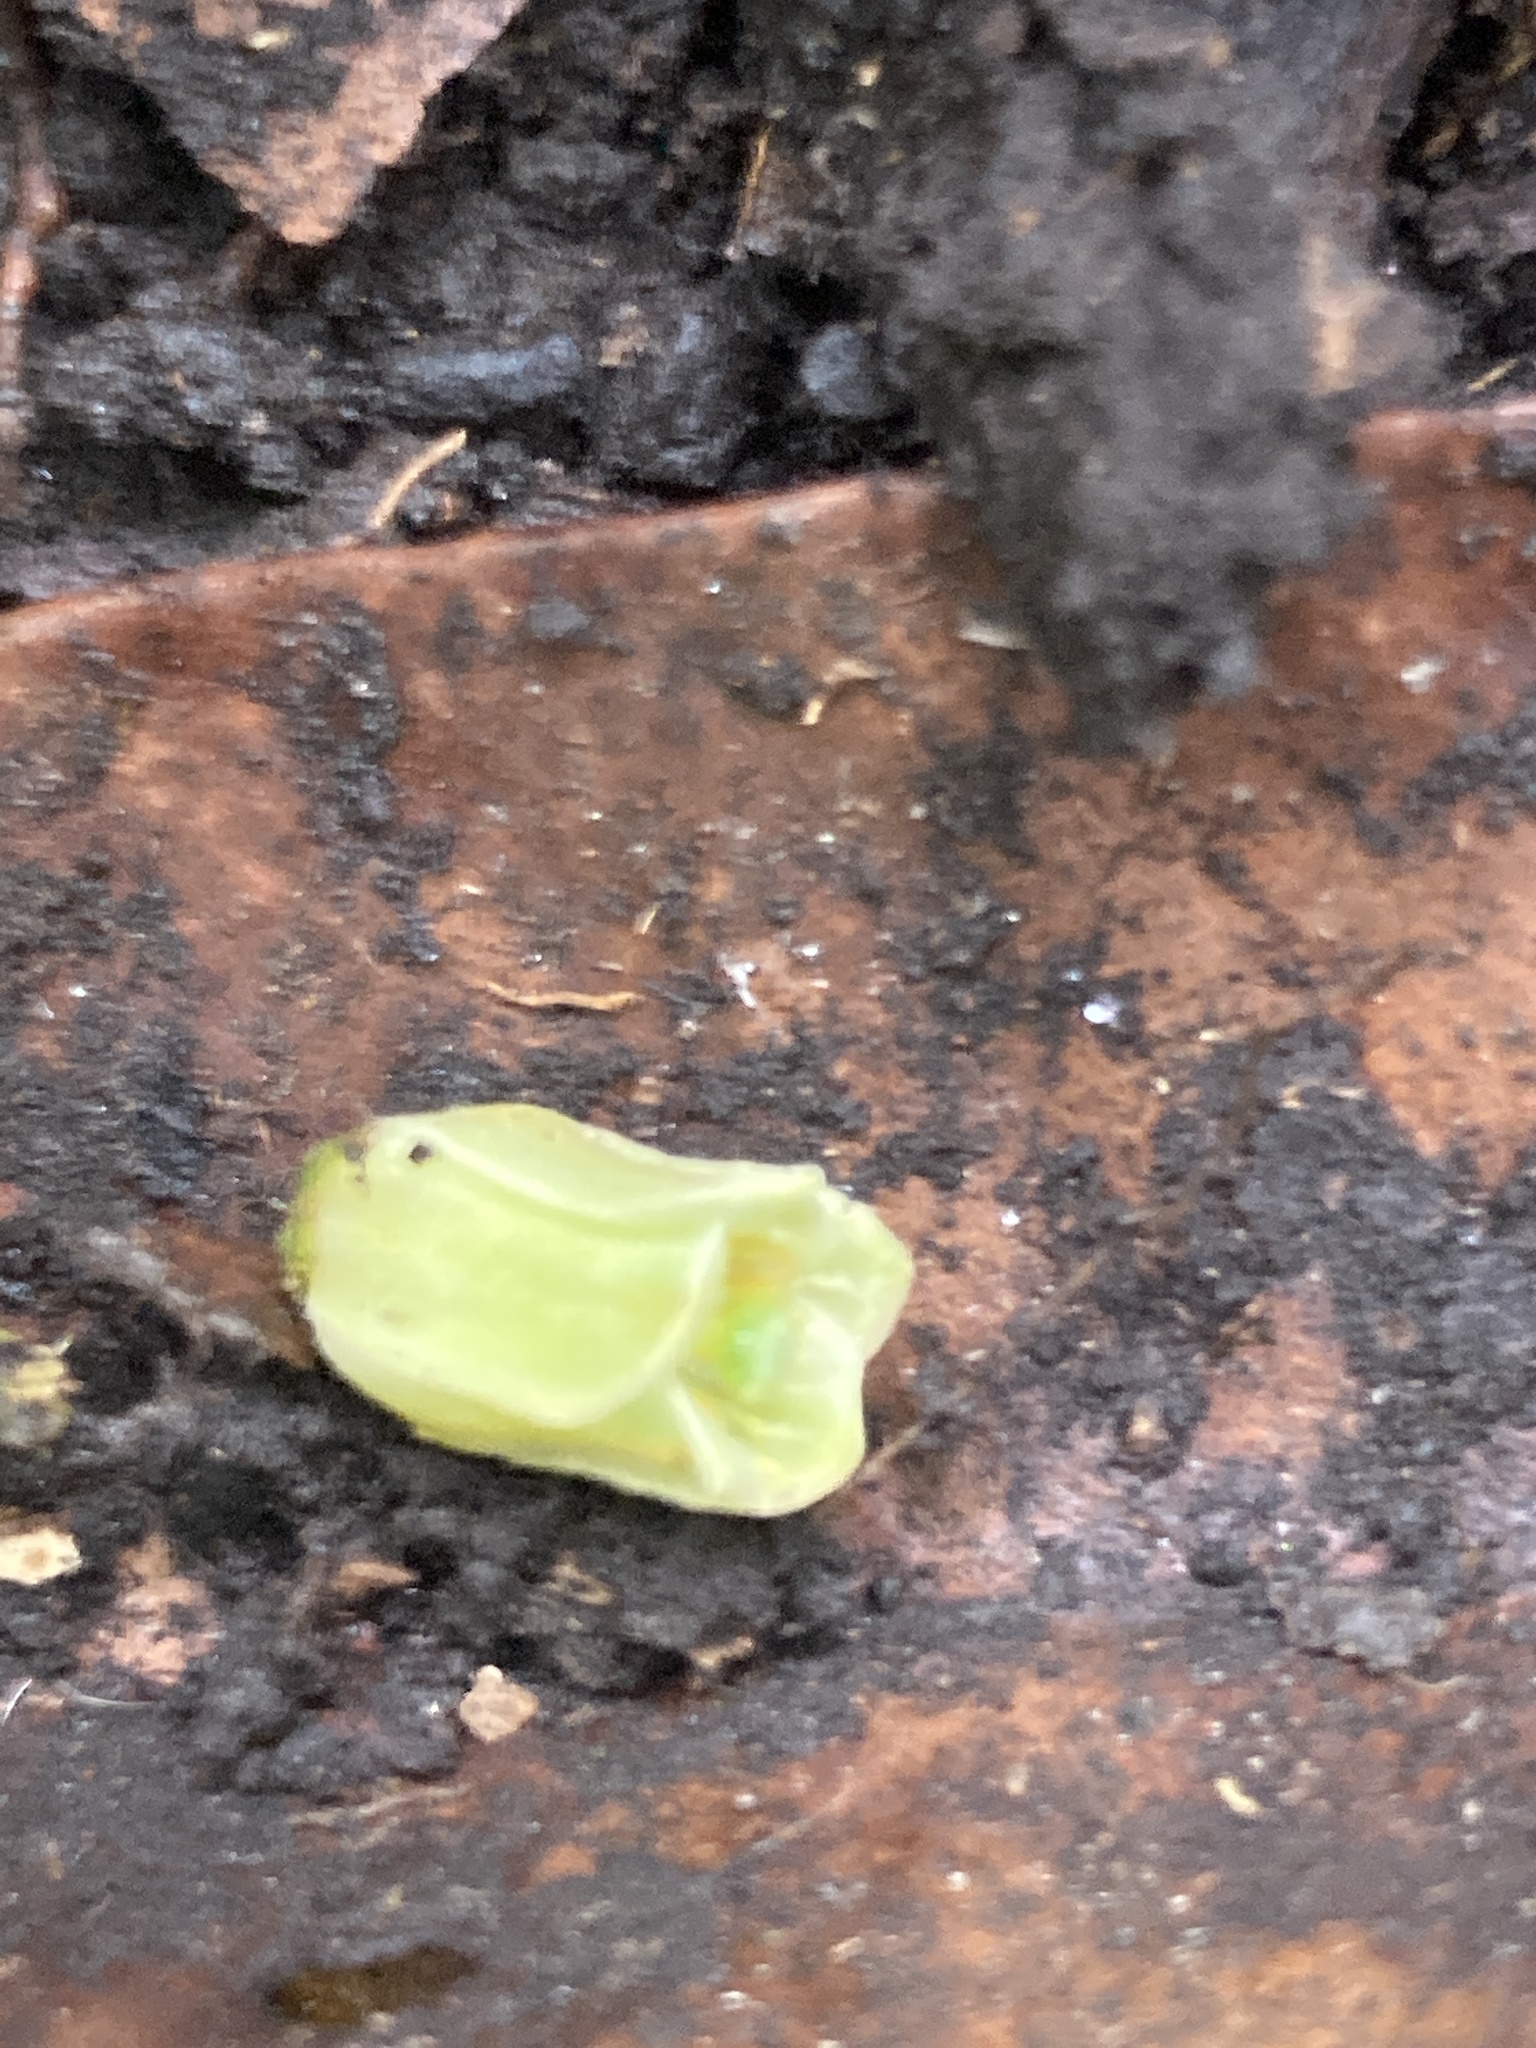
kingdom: Plantae
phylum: Tracheophyta
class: Magnoliopsida
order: Sapindales
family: Meliaceae
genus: Cedrela
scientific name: Cedrela montana
